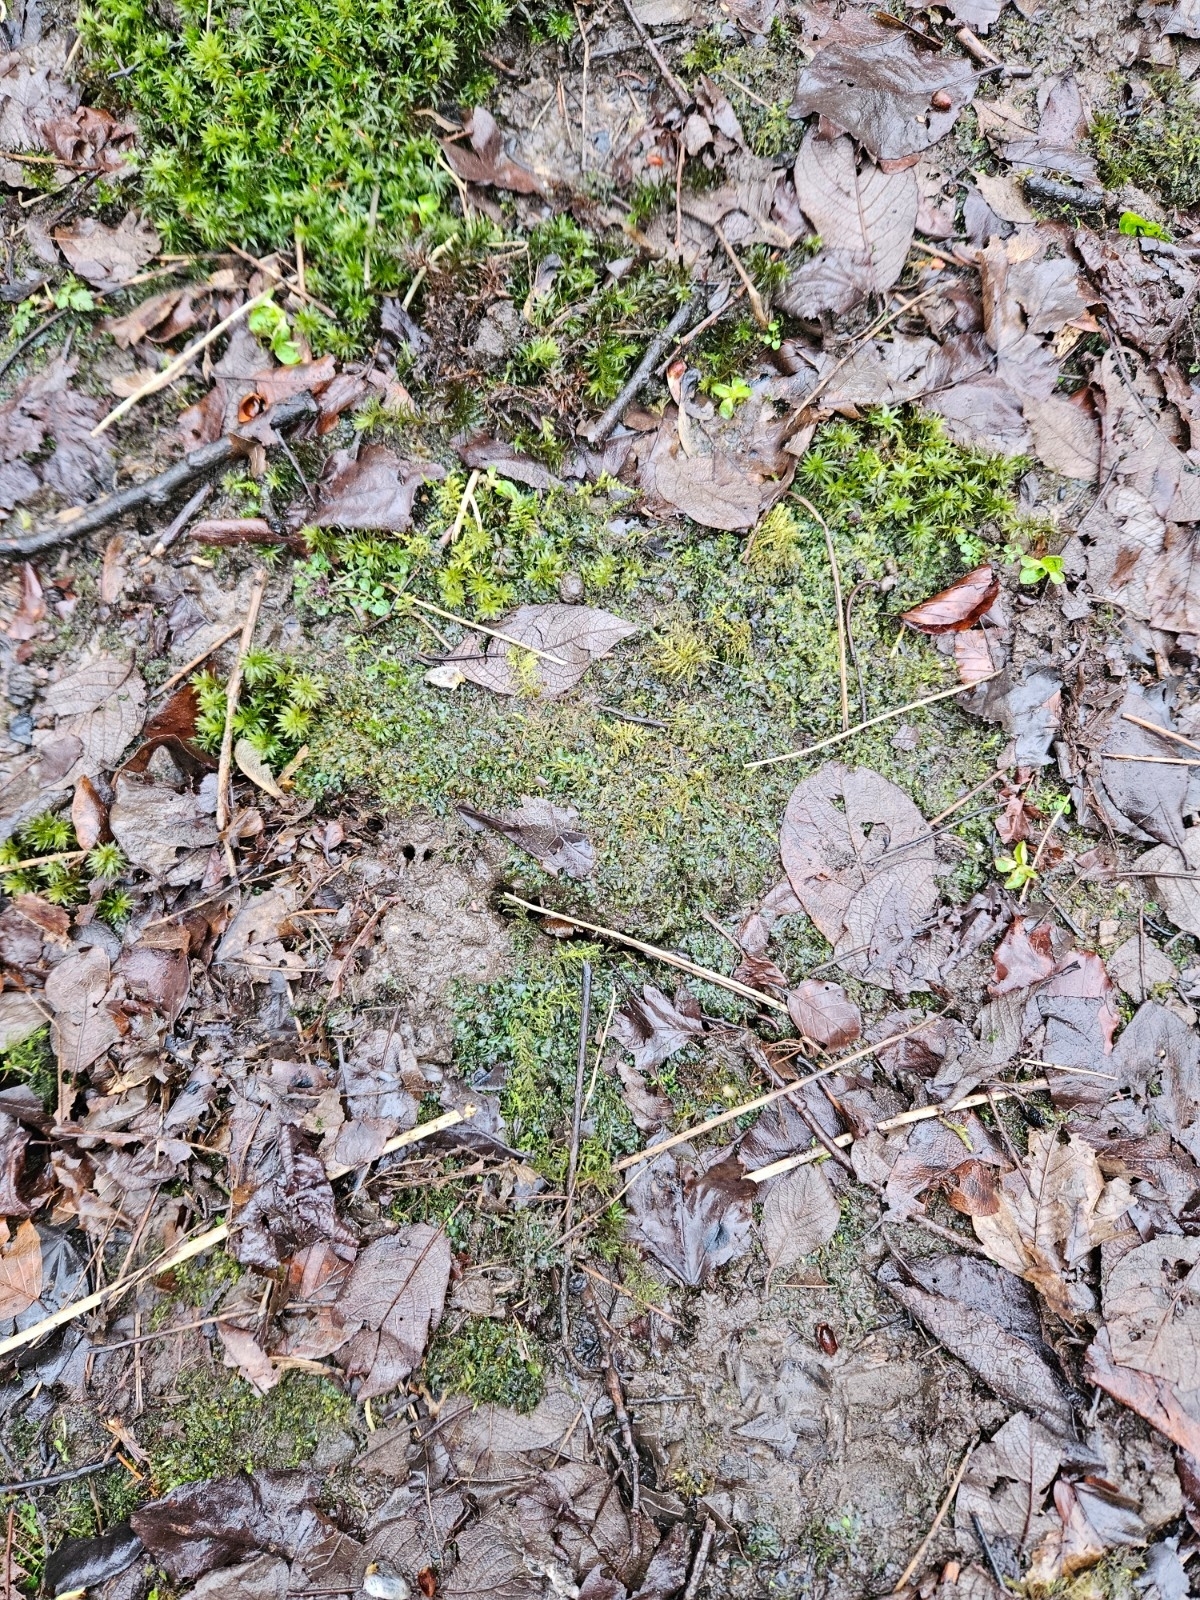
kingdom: Plantae
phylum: Marchantiophyta
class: Jungermanniopsida
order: Jungermanniales
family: Lophocoleaceae
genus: Chiloscyphus
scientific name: Chiloscyphus polyanthos
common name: Square-leaved crestwort
